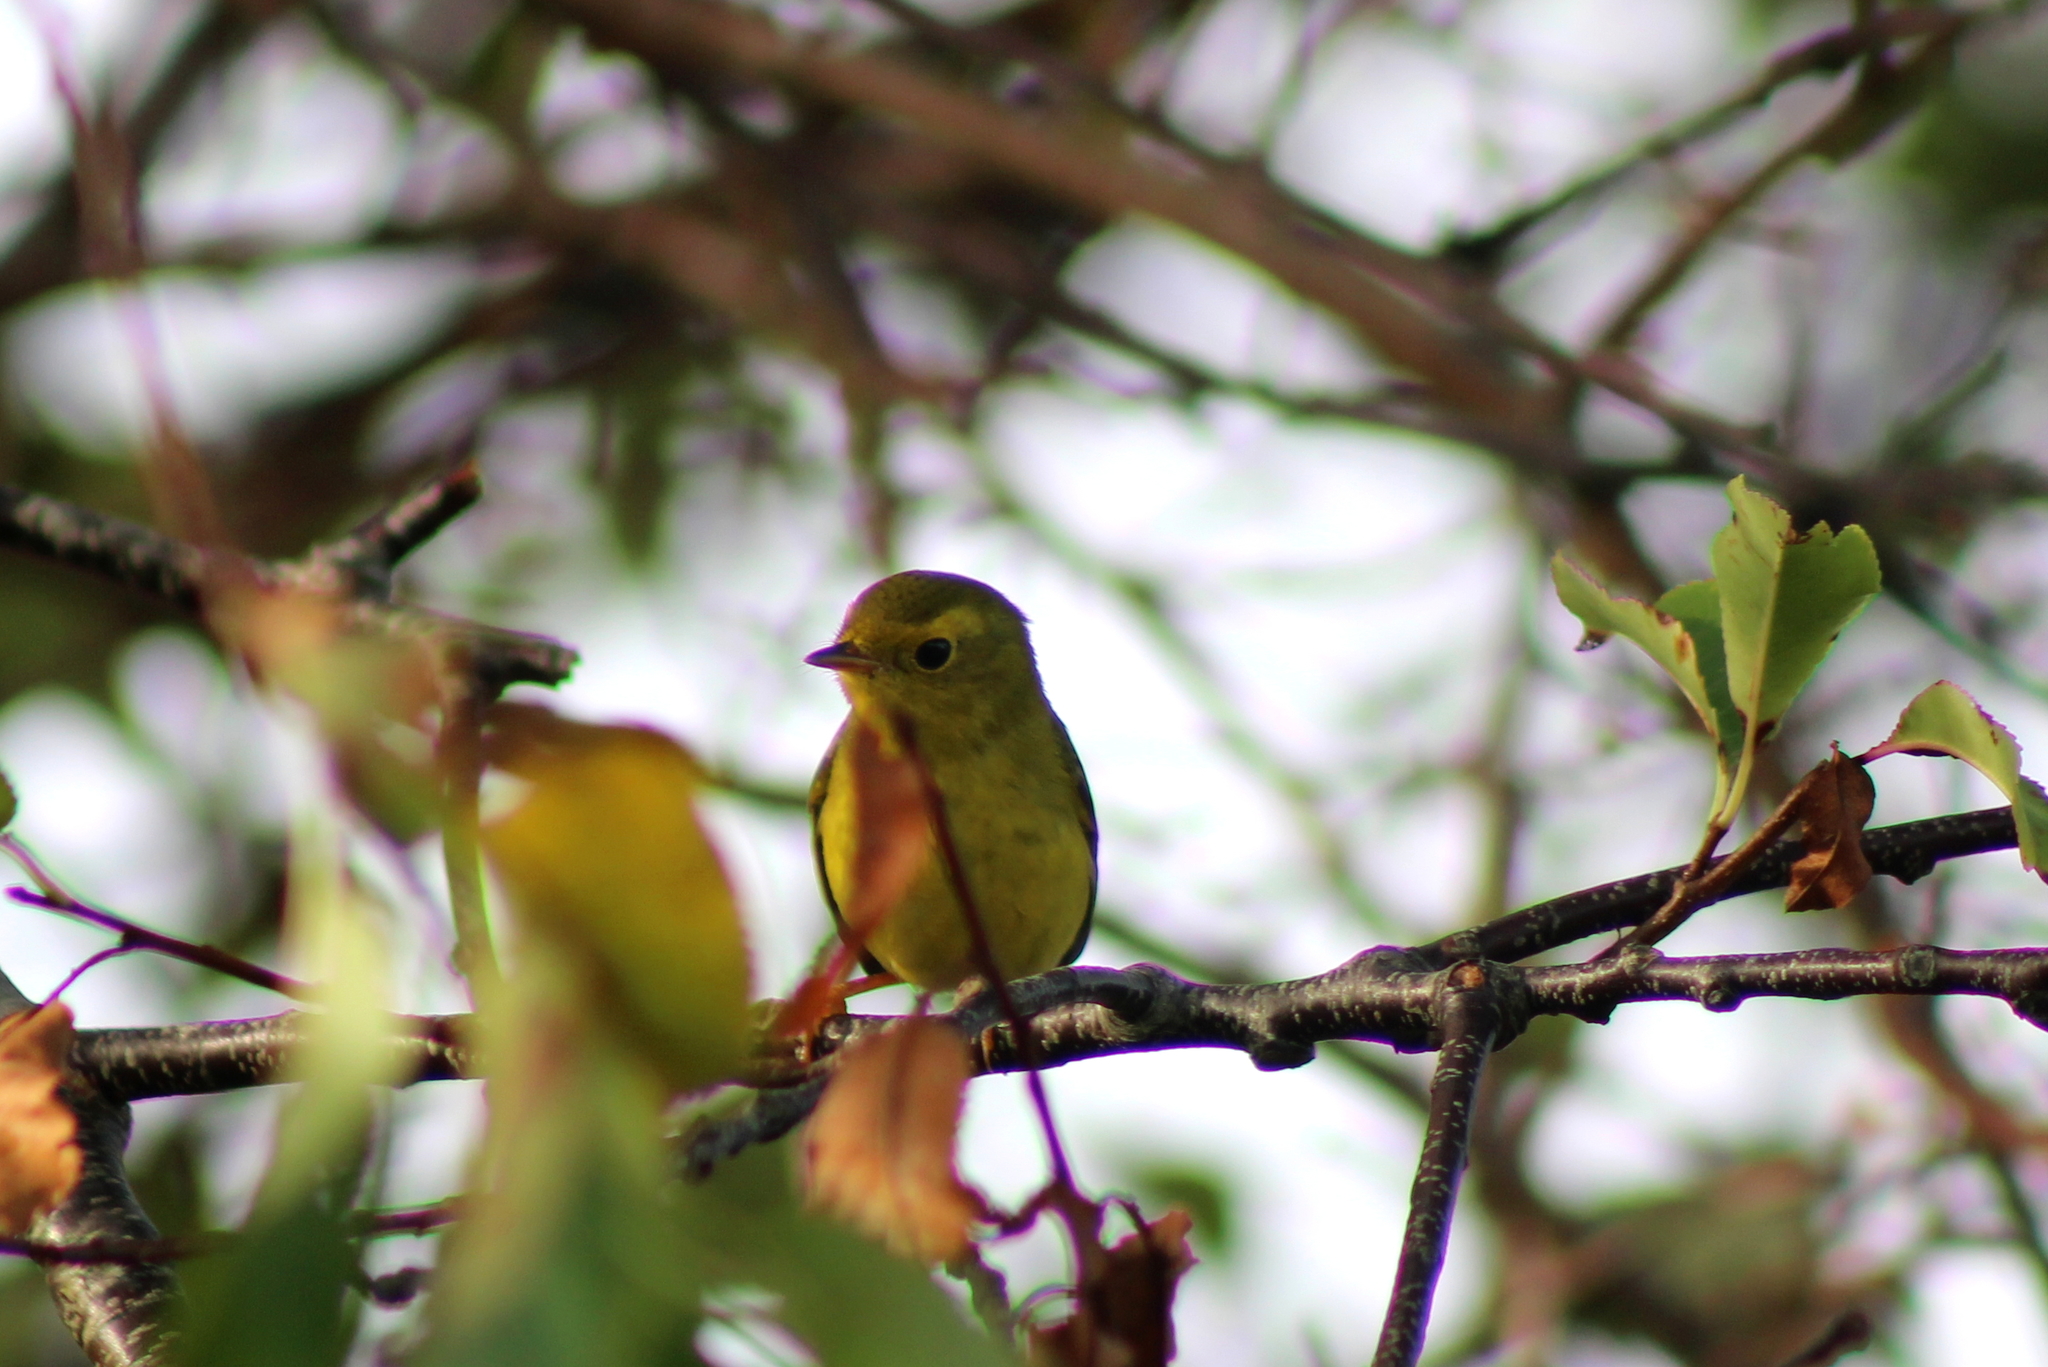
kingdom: Animalia
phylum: Chordata
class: Aves
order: Passeriformes
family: Parulidae
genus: Cardellina
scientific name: Cardellina pusilla
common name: Wilson's warbler
